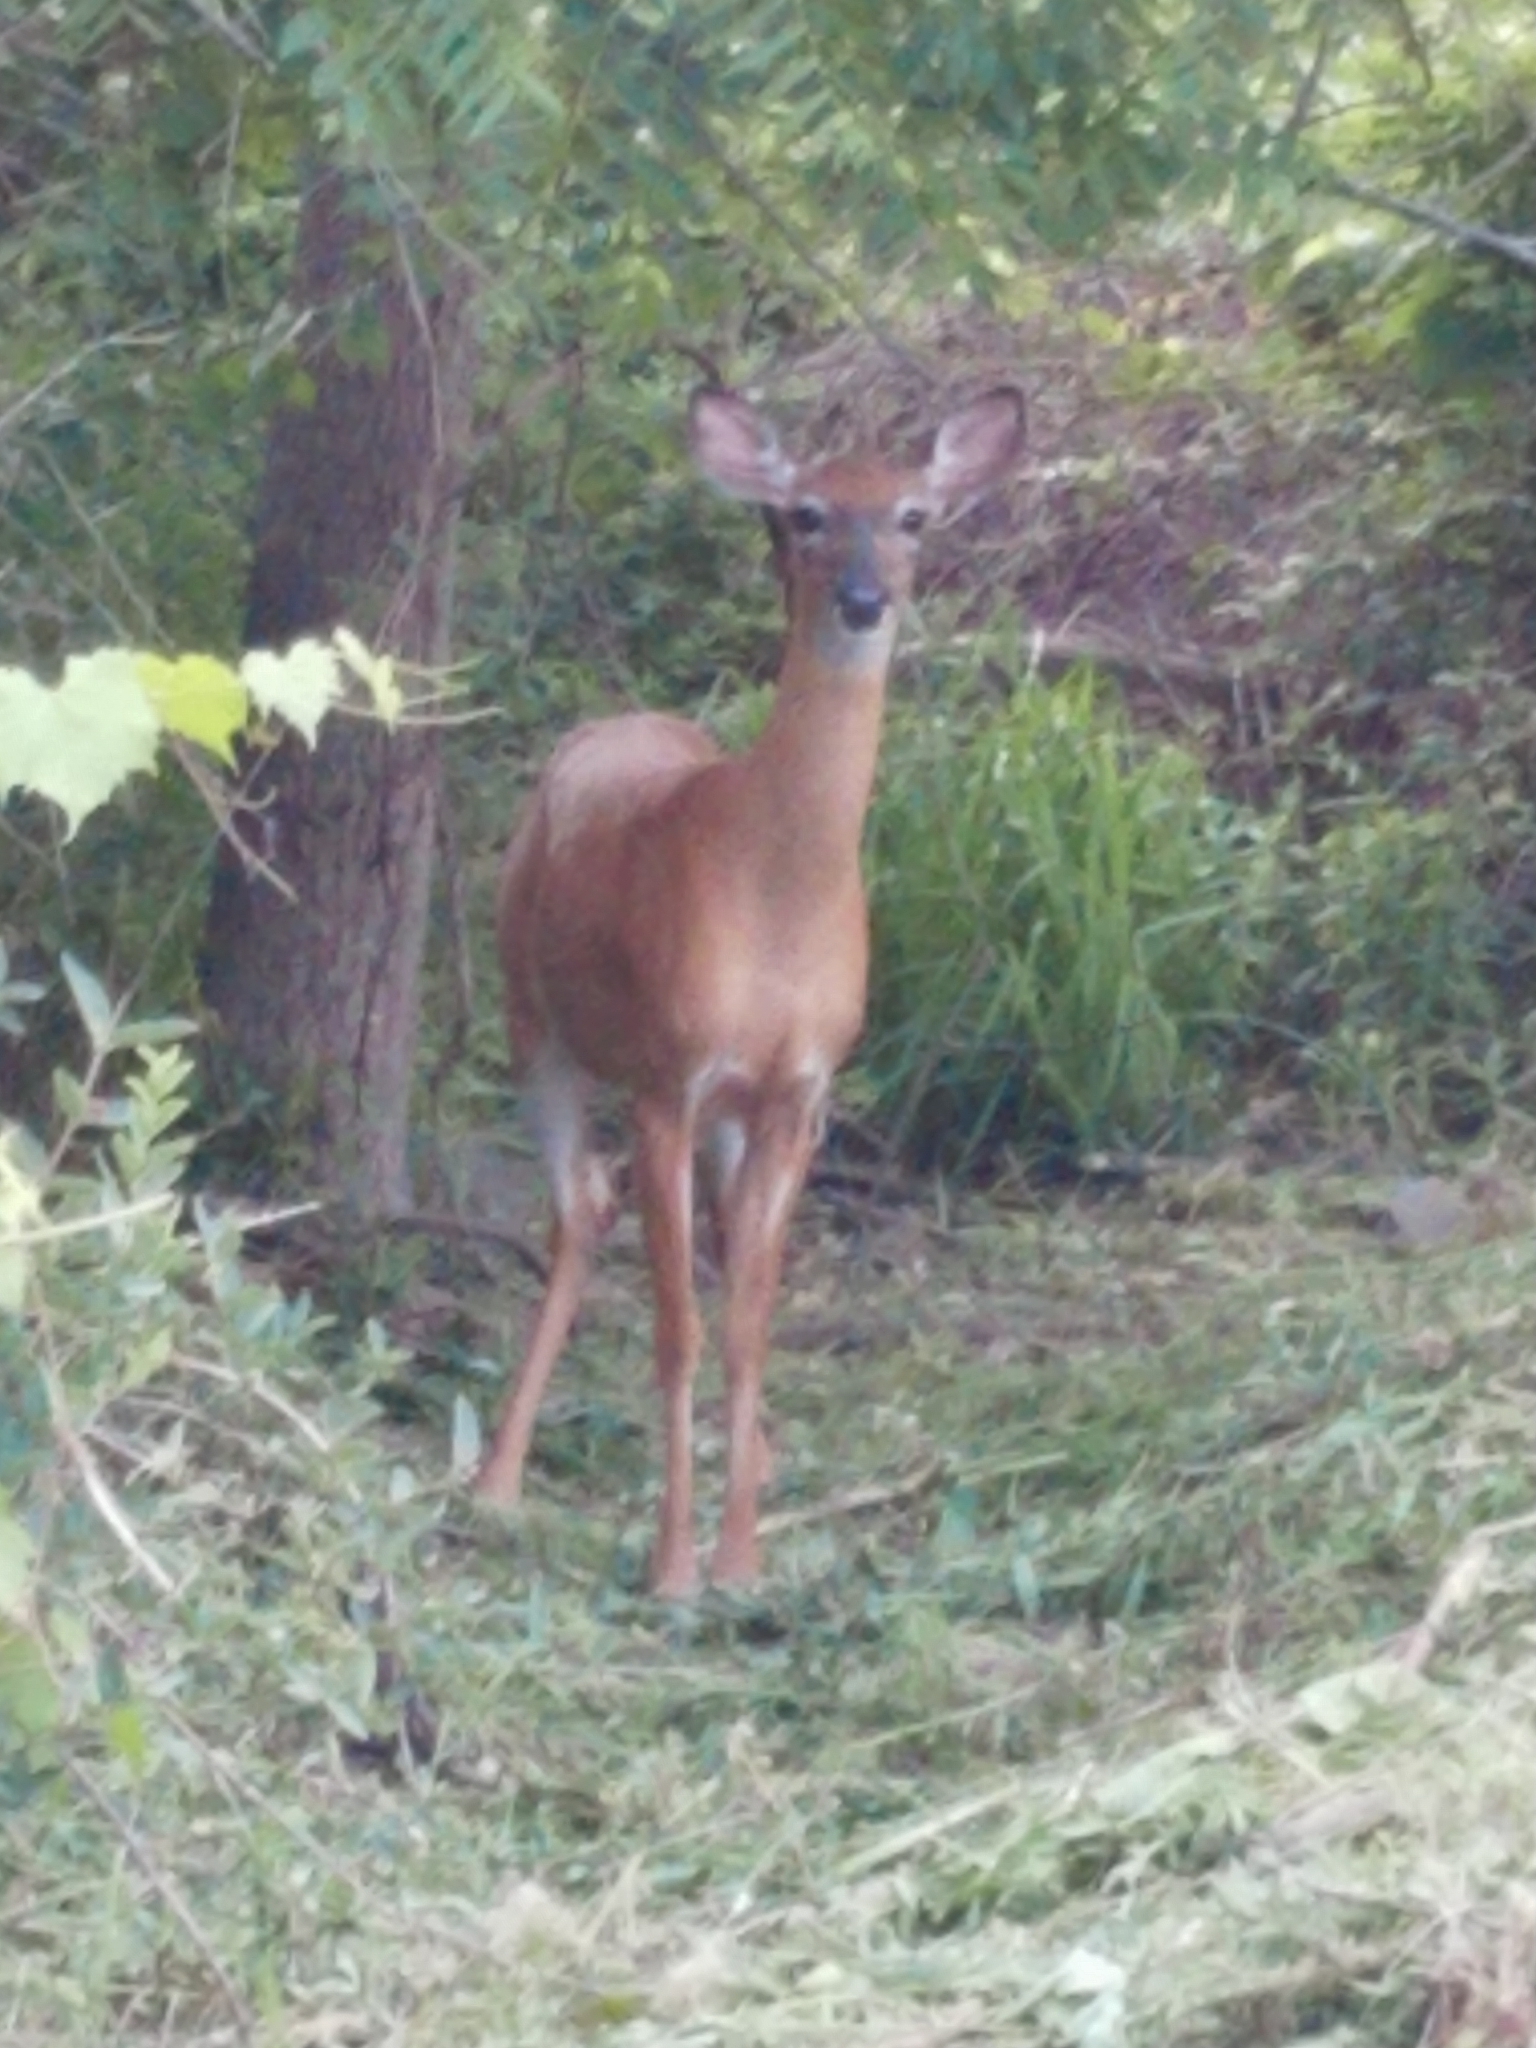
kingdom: Animalia
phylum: Chordata
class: Mammalia
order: Artiodactyla
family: Cervidae
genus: Odocoileus
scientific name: Odocoileus virginianus
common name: White-tailed deer
